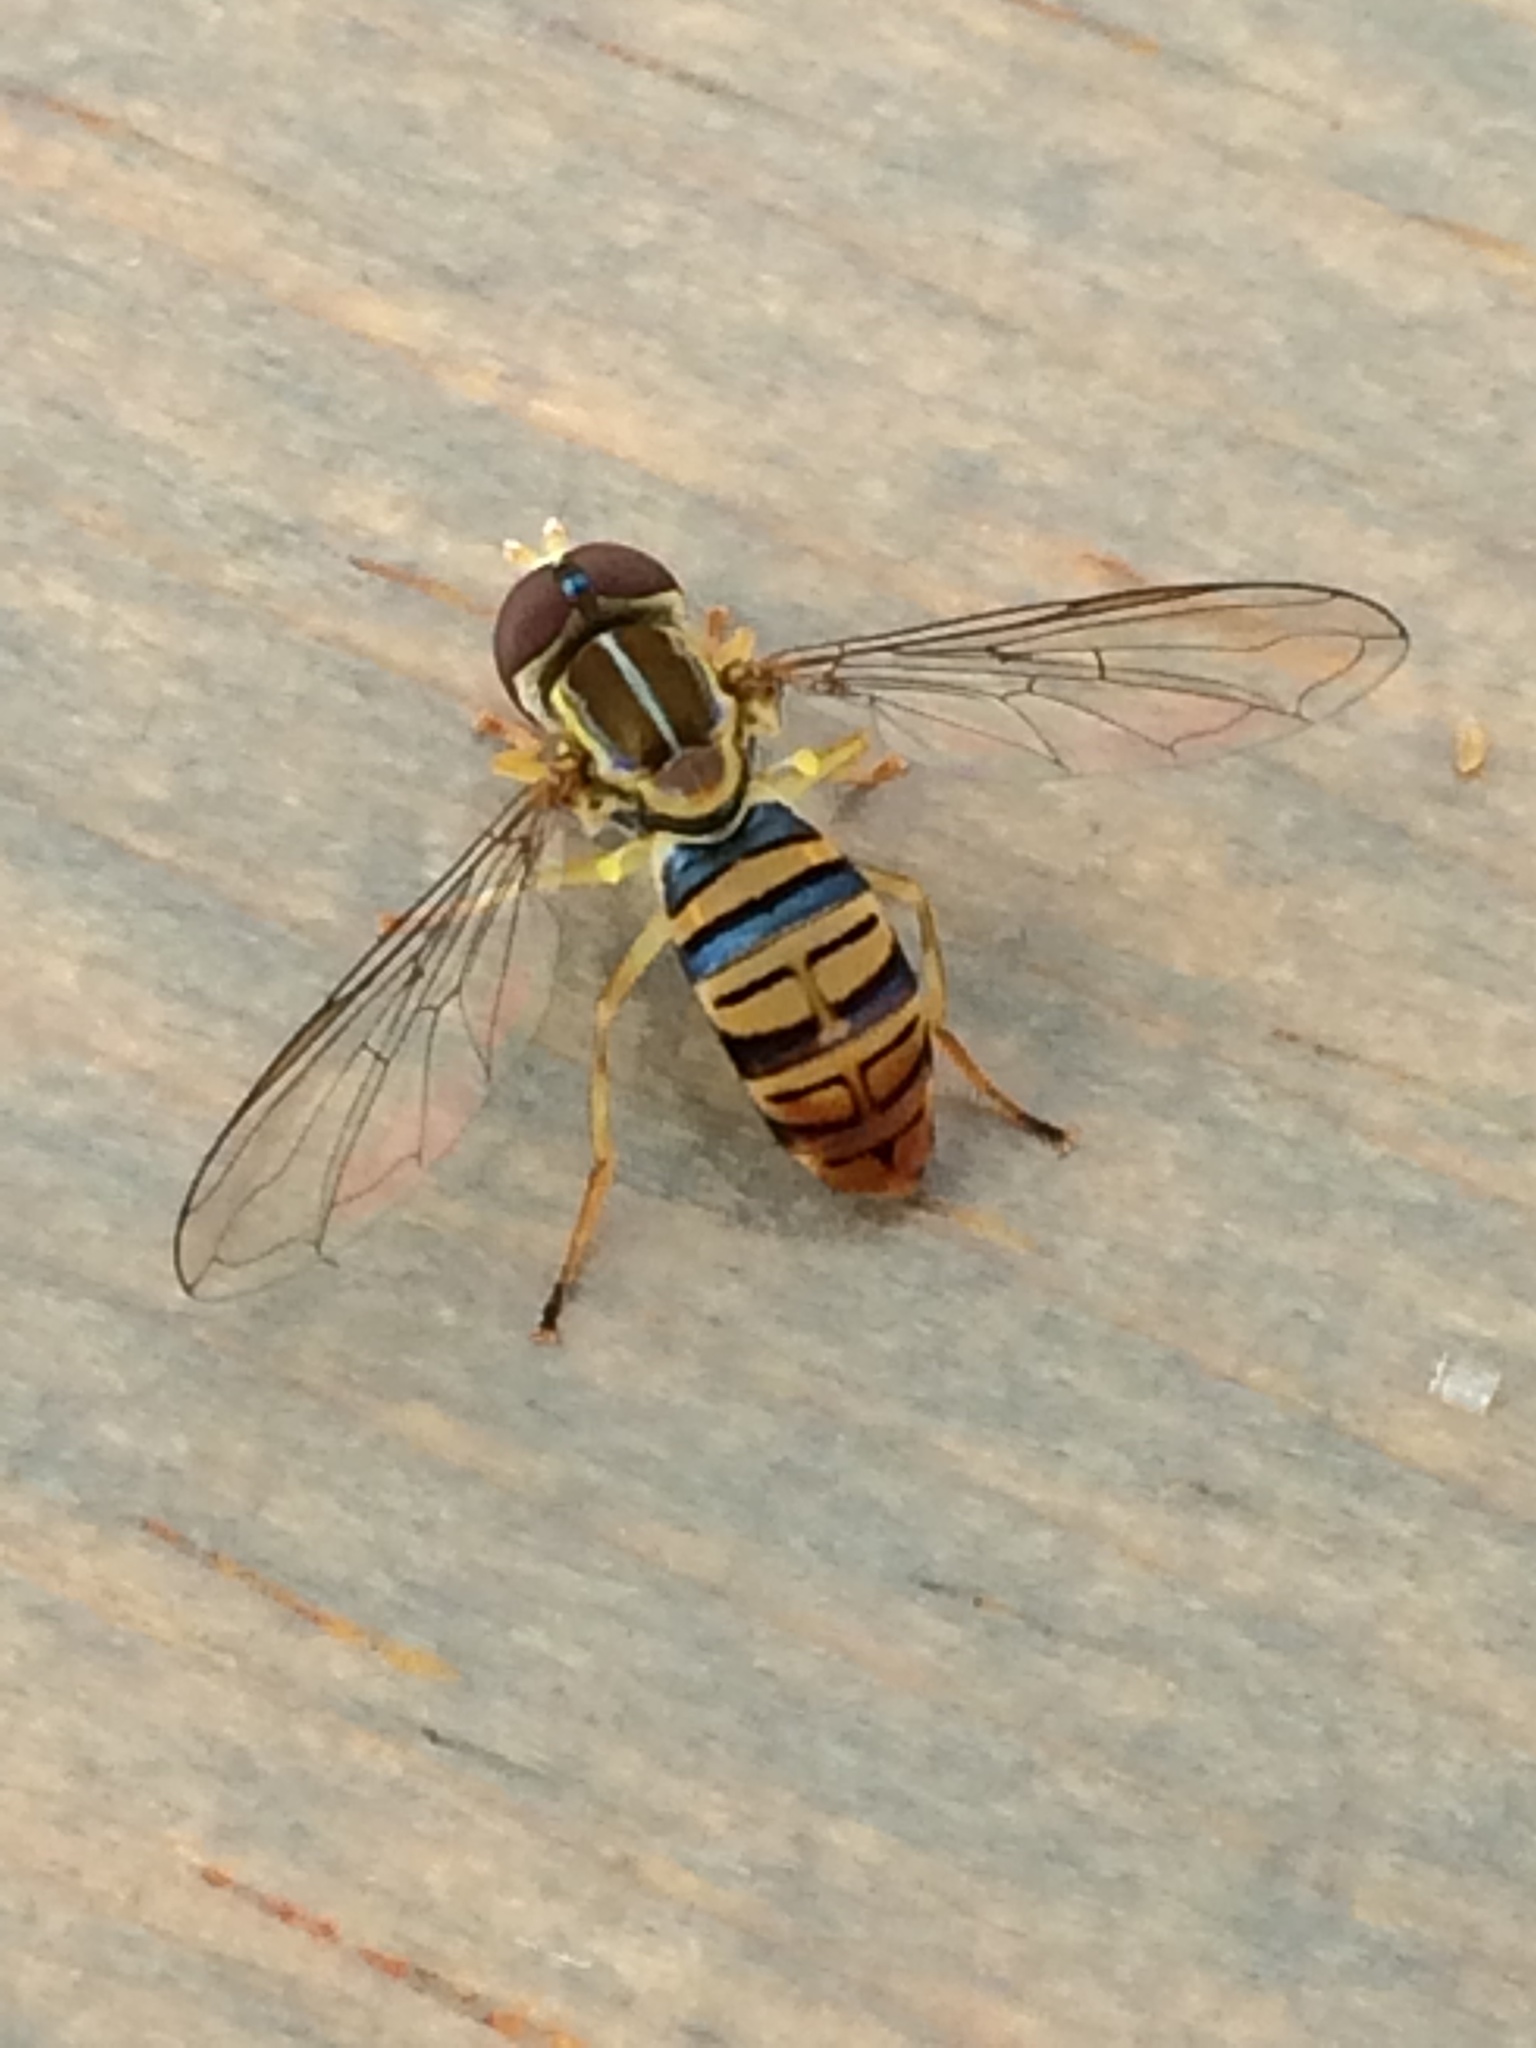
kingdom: Animalia
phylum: Arthropoda
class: Insecta
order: Diptera
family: Syrphidae
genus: Toxomerus
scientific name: Toxomerus politus
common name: Maize calligrapher
